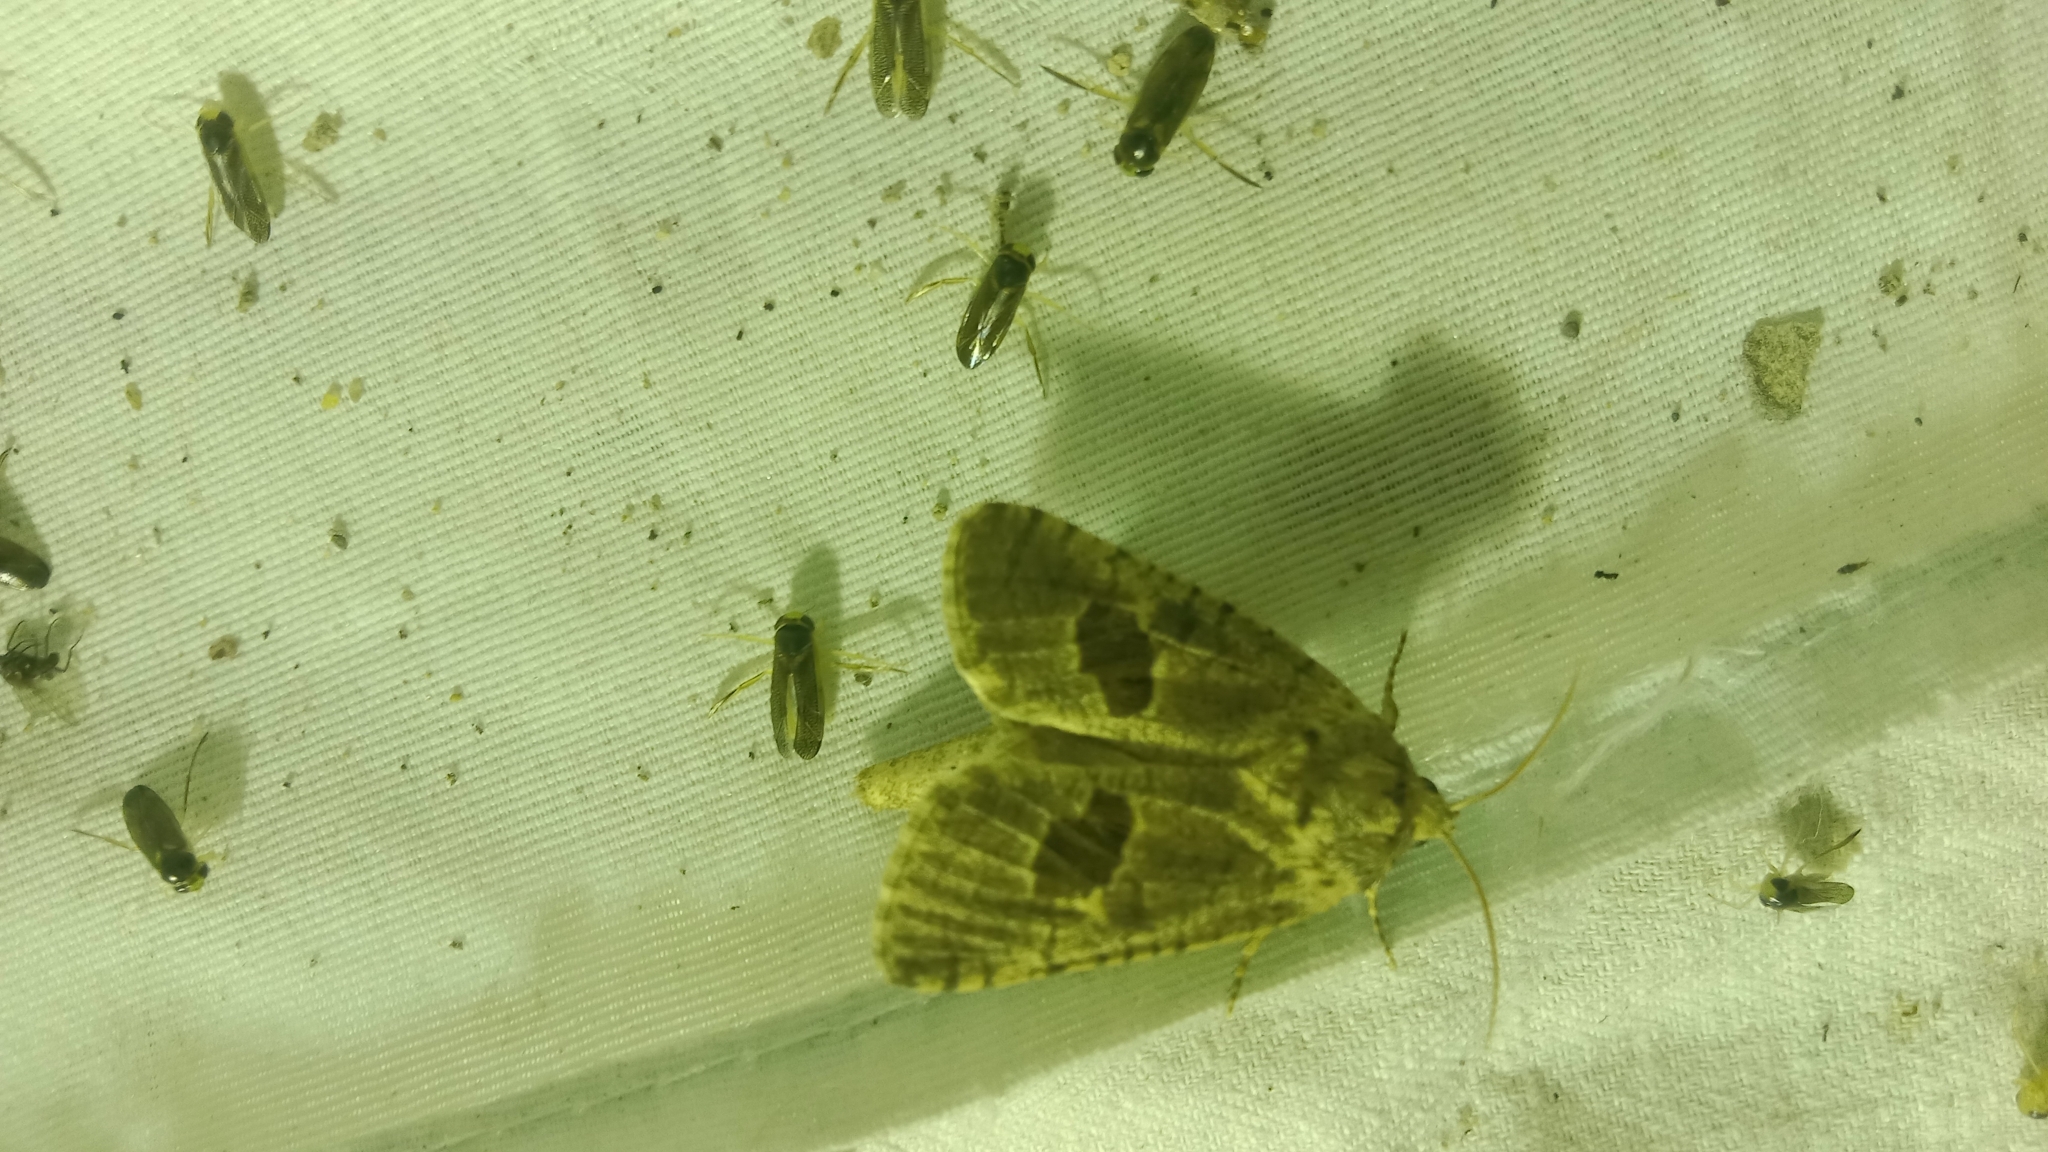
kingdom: Animalia
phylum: Arthropoda
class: Insecta
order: Lepidoptera
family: Cossidae
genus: Paracossulus
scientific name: Paracossulus thrips
